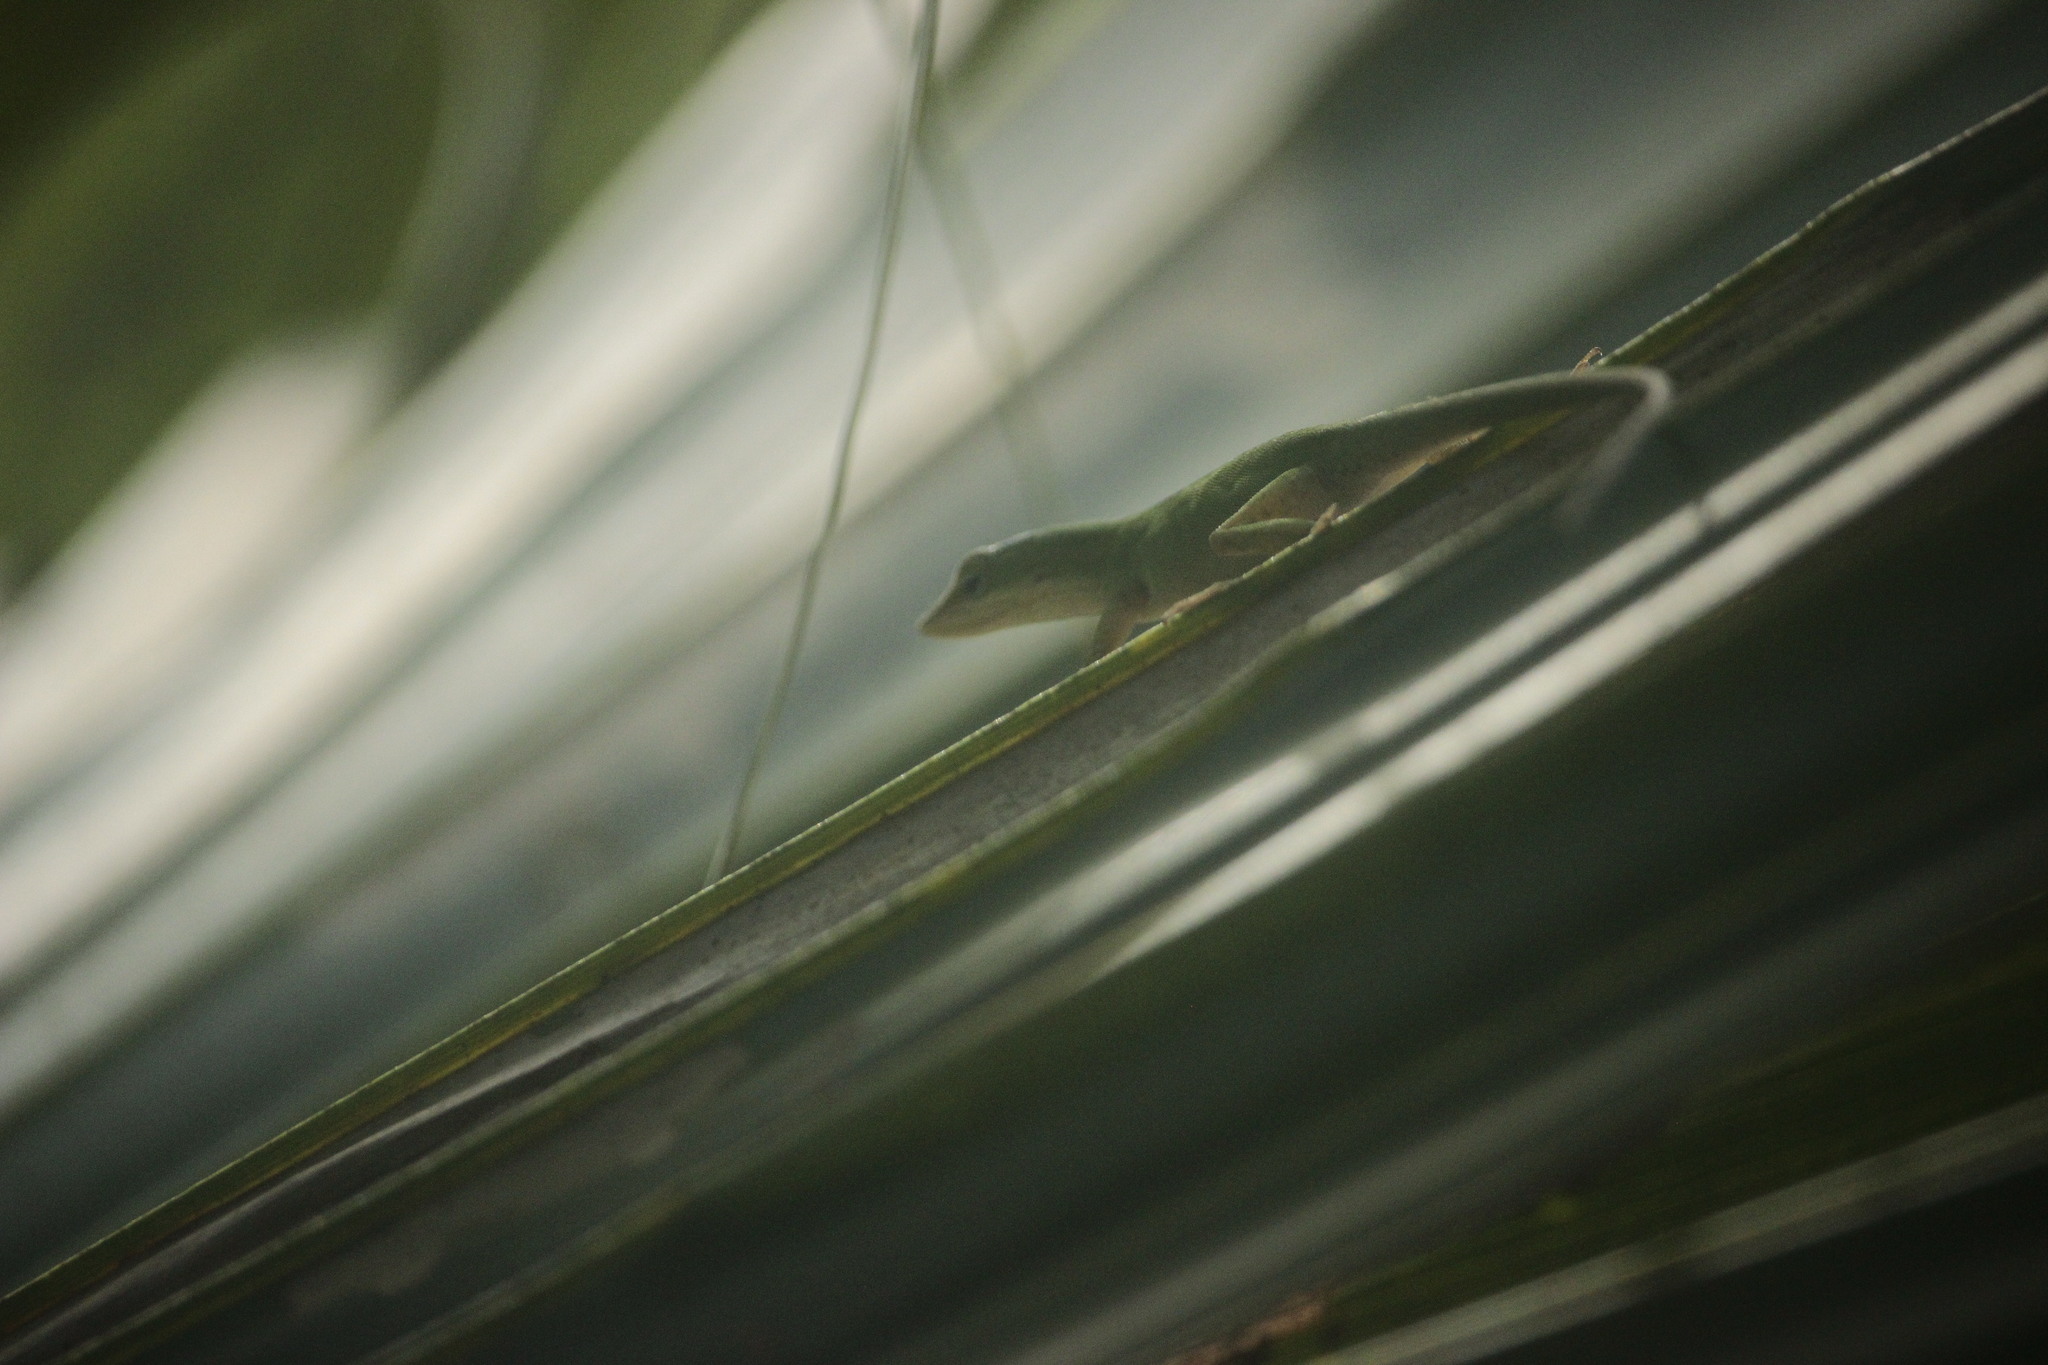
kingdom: Animalia
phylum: Chordata
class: Squamata
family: Dactyloidae
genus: Anolis
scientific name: Anolis carolinensis
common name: Green anole
